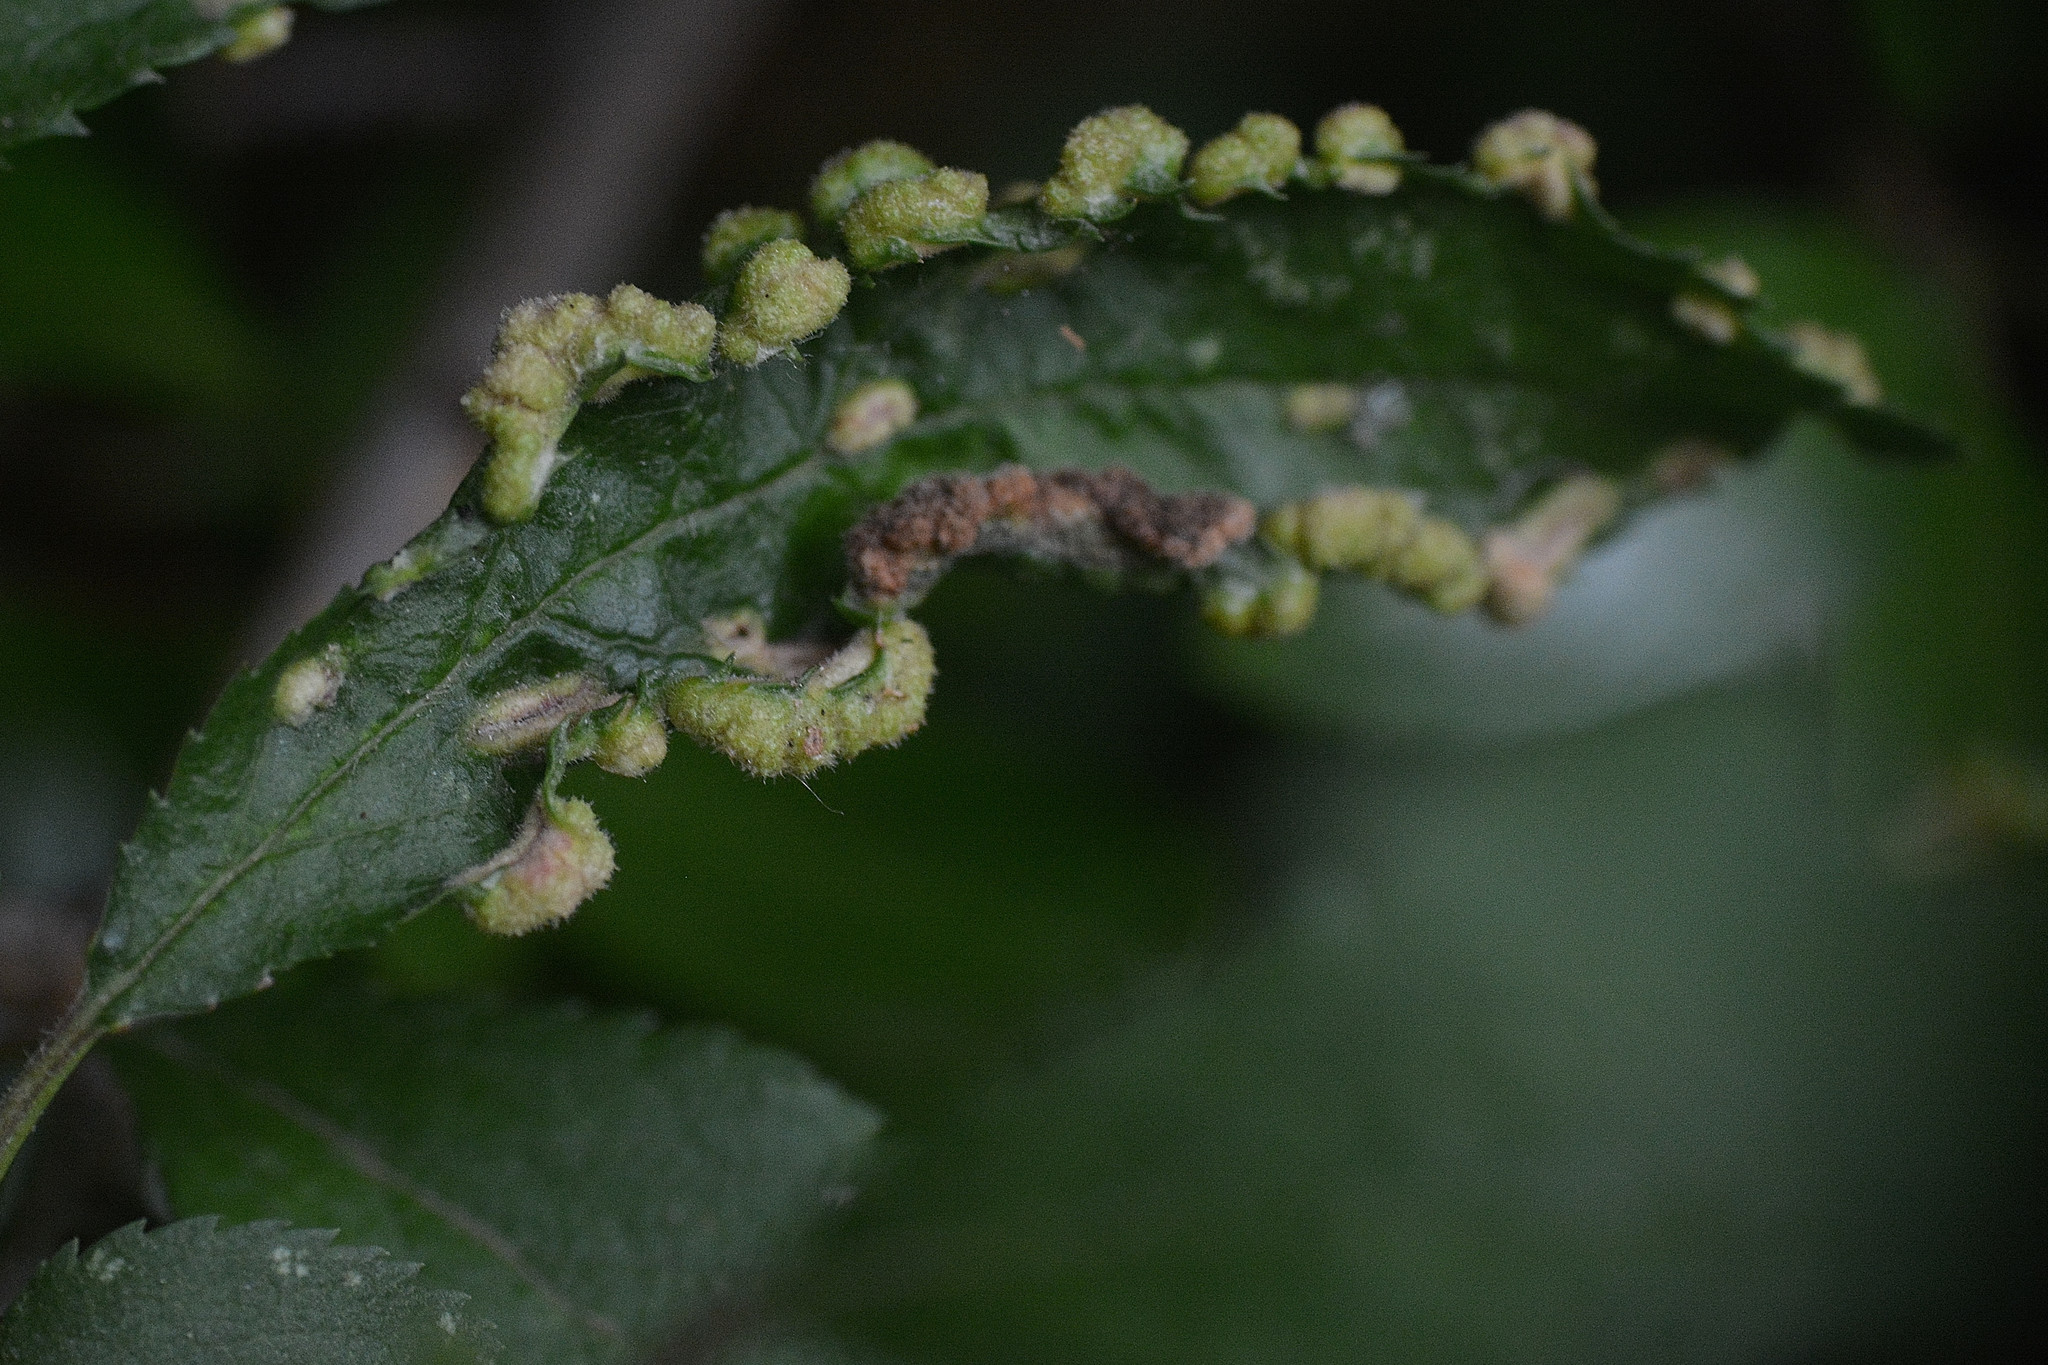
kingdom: Animalia
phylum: Arthropoda
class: Arachnida
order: Trombidiformes
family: Eriophyidae
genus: Eriophyes
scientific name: Eriophyes similis
